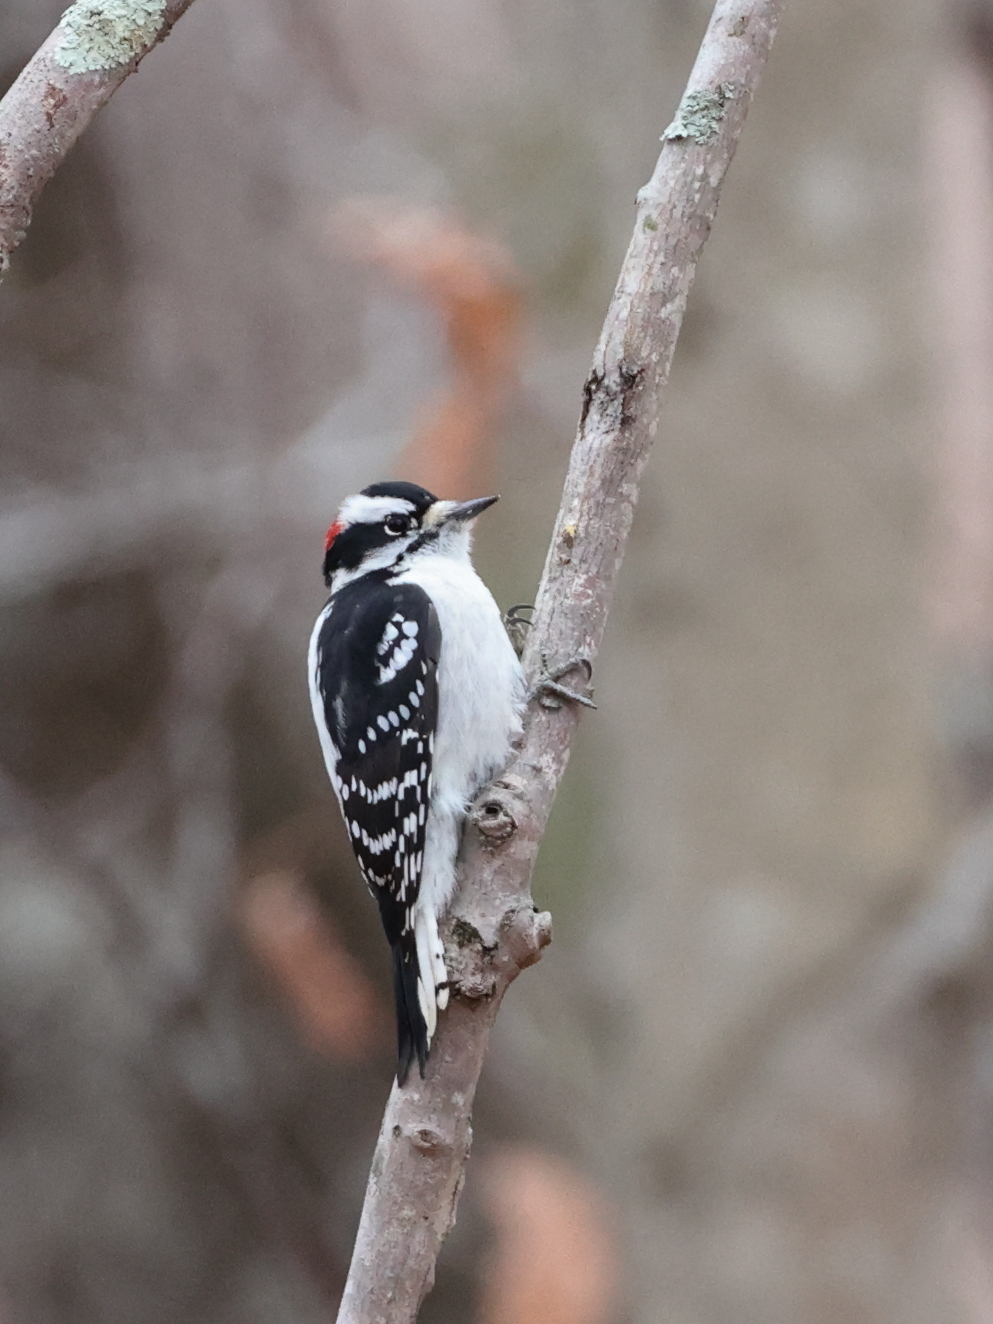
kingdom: Animalia
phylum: Chordata
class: Aves
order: Piciformes
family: Picidae
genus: Dryobates
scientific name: Dryobates pubescens
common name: Downy woodpecker
